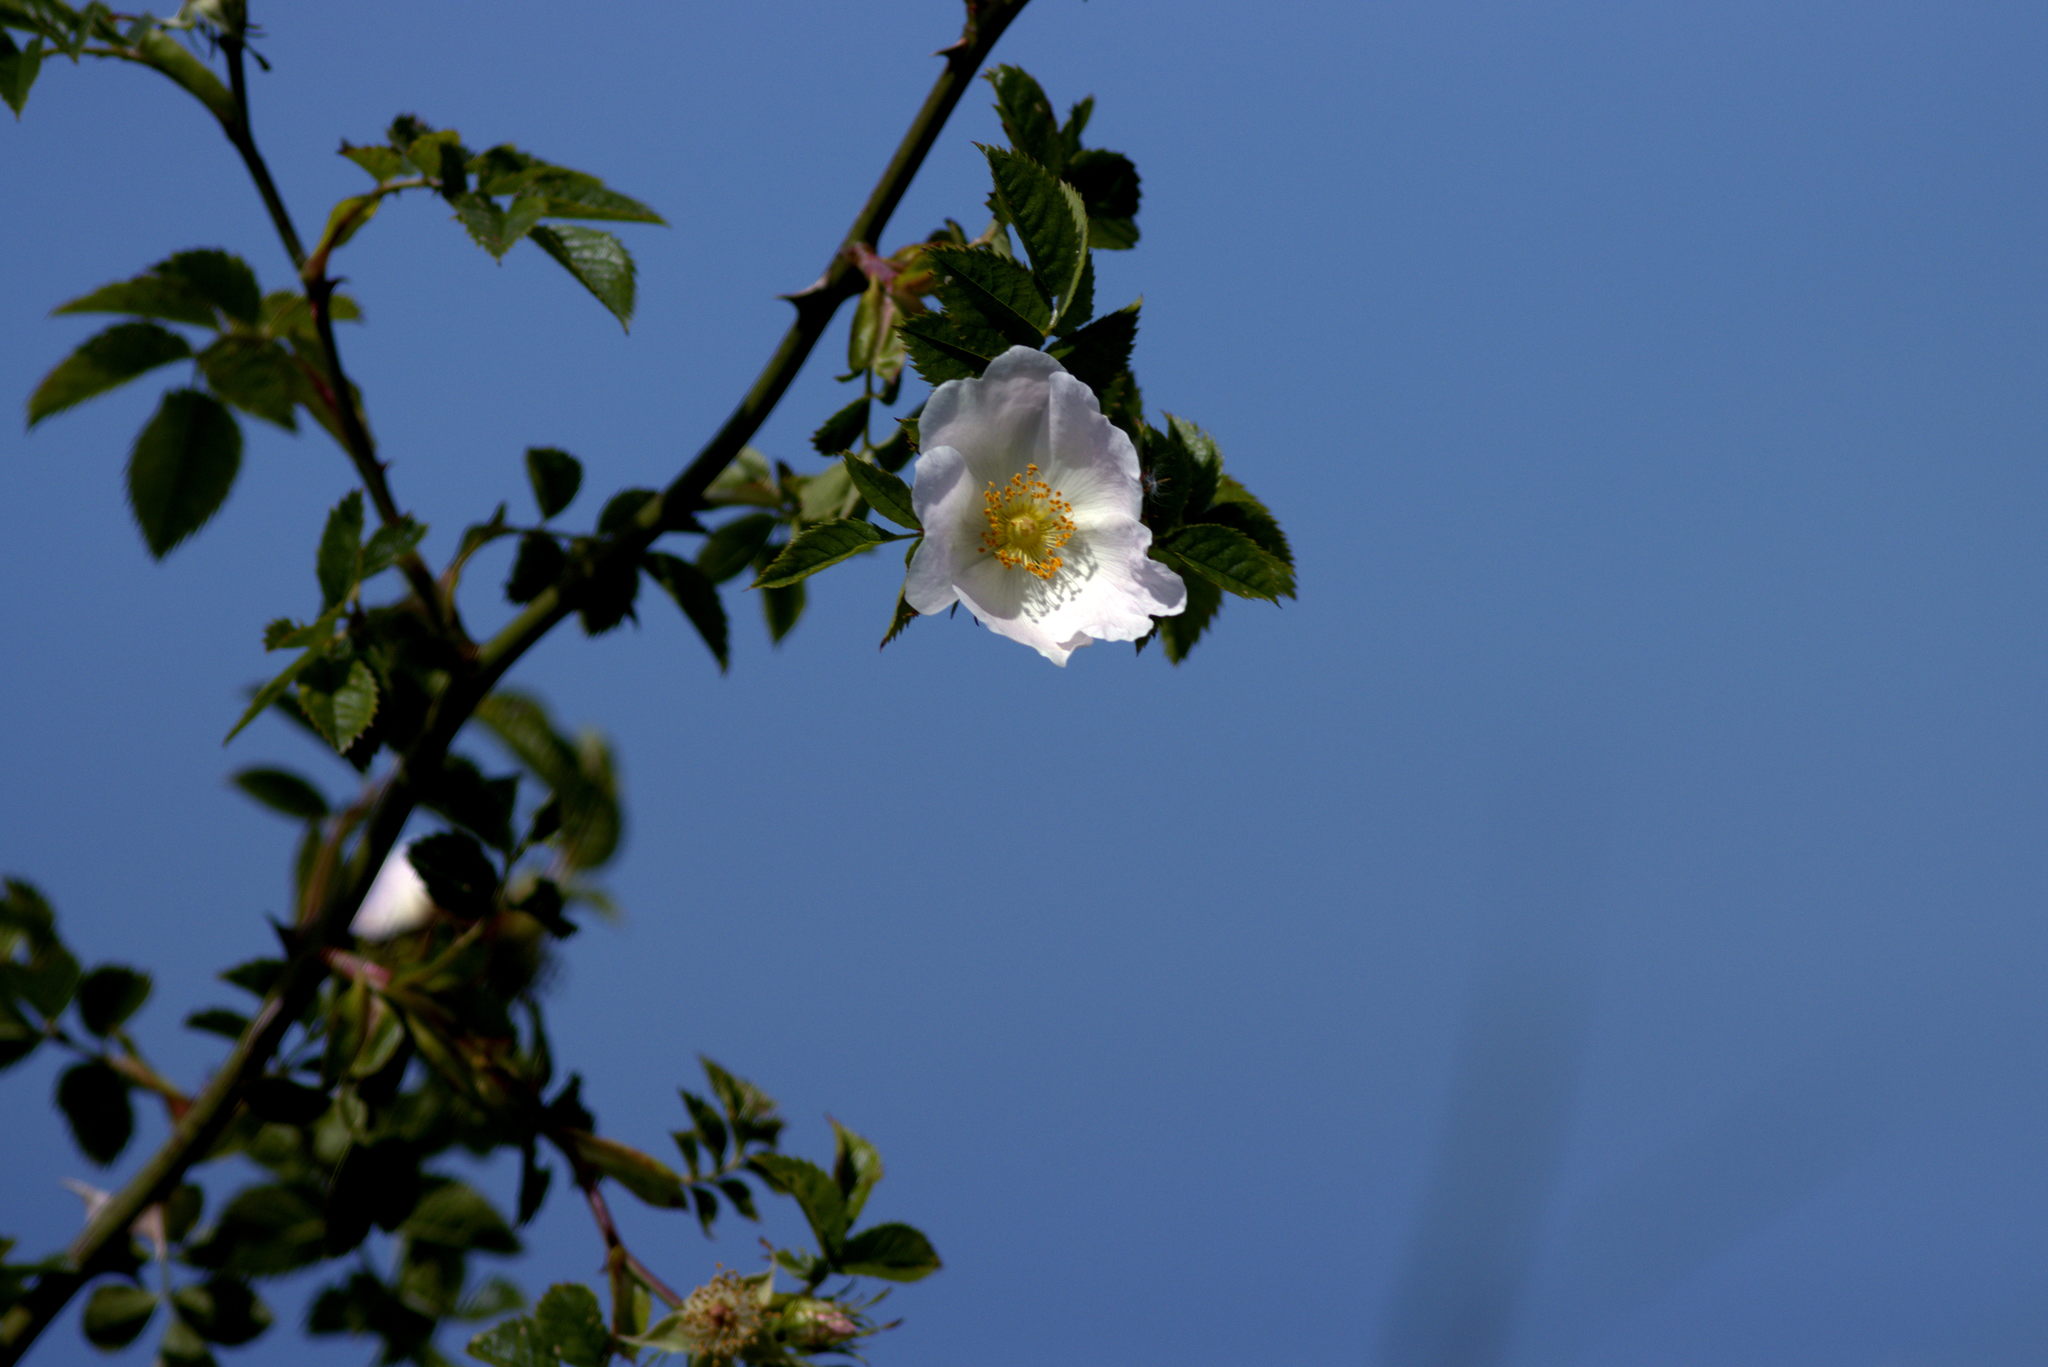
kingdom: Plantae
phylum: Tracheophyta
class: Magnoliopsida
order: Rosales
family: Rosaceae
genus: Rosa
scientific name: Rosa canina
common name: Dog rose
